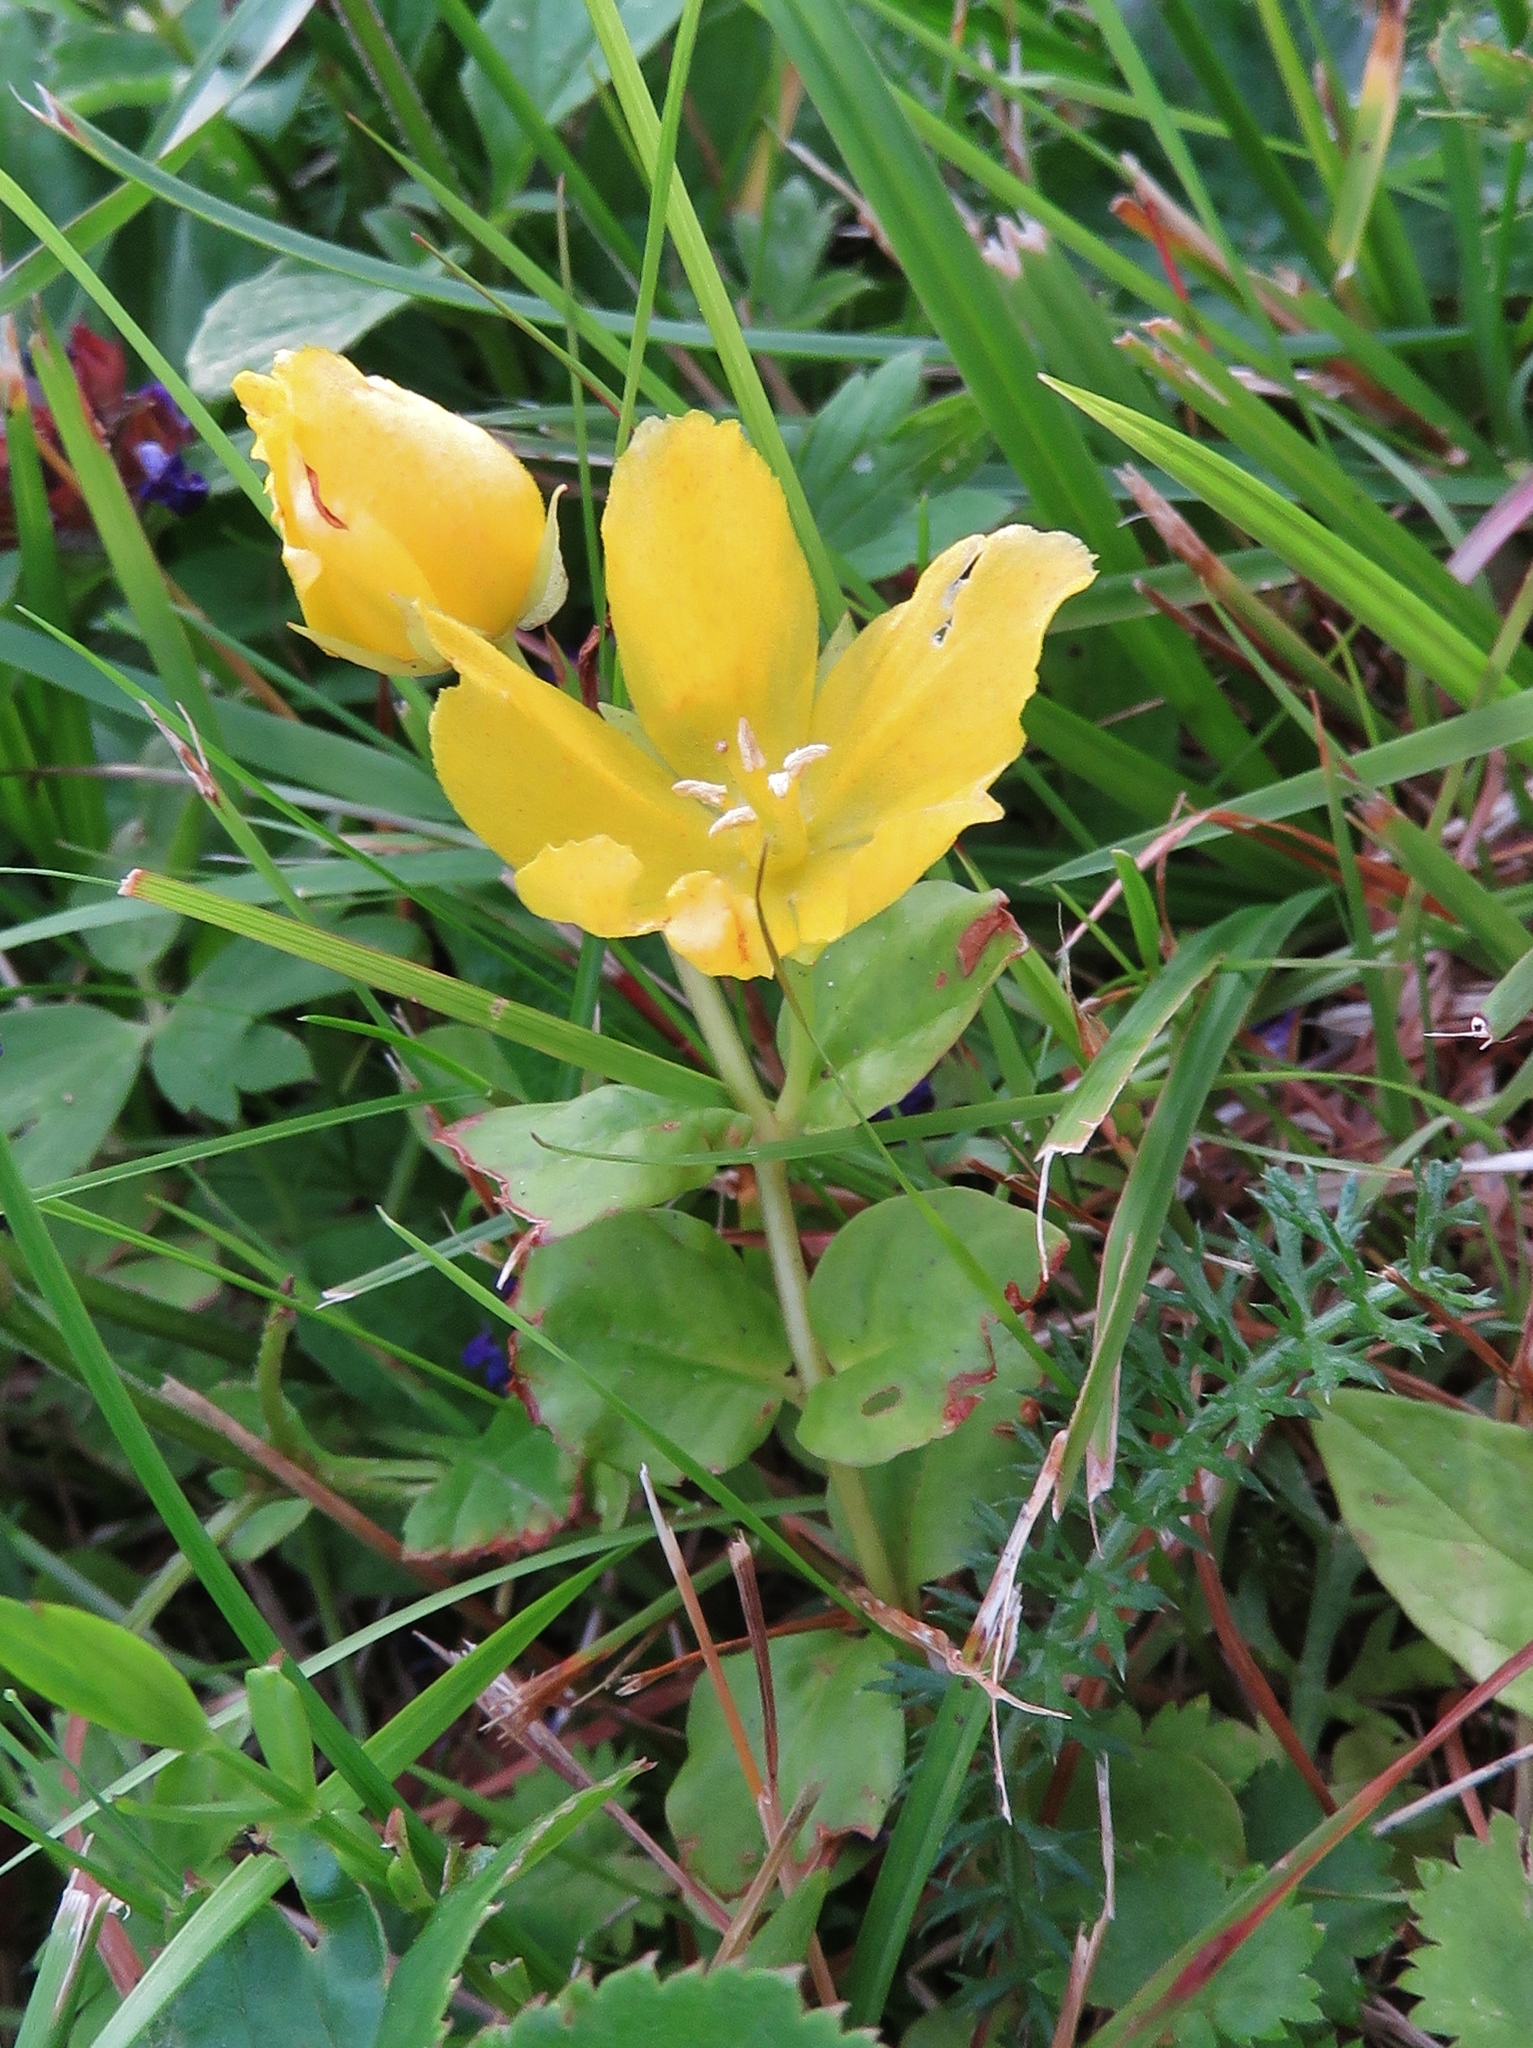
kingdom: Plantae
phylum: Tracheophyta
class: Magnoliopsida
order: Ericales
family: Primulaceae
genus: Lysimachia
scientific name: Lysimachia nummularia
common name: Moneywort
